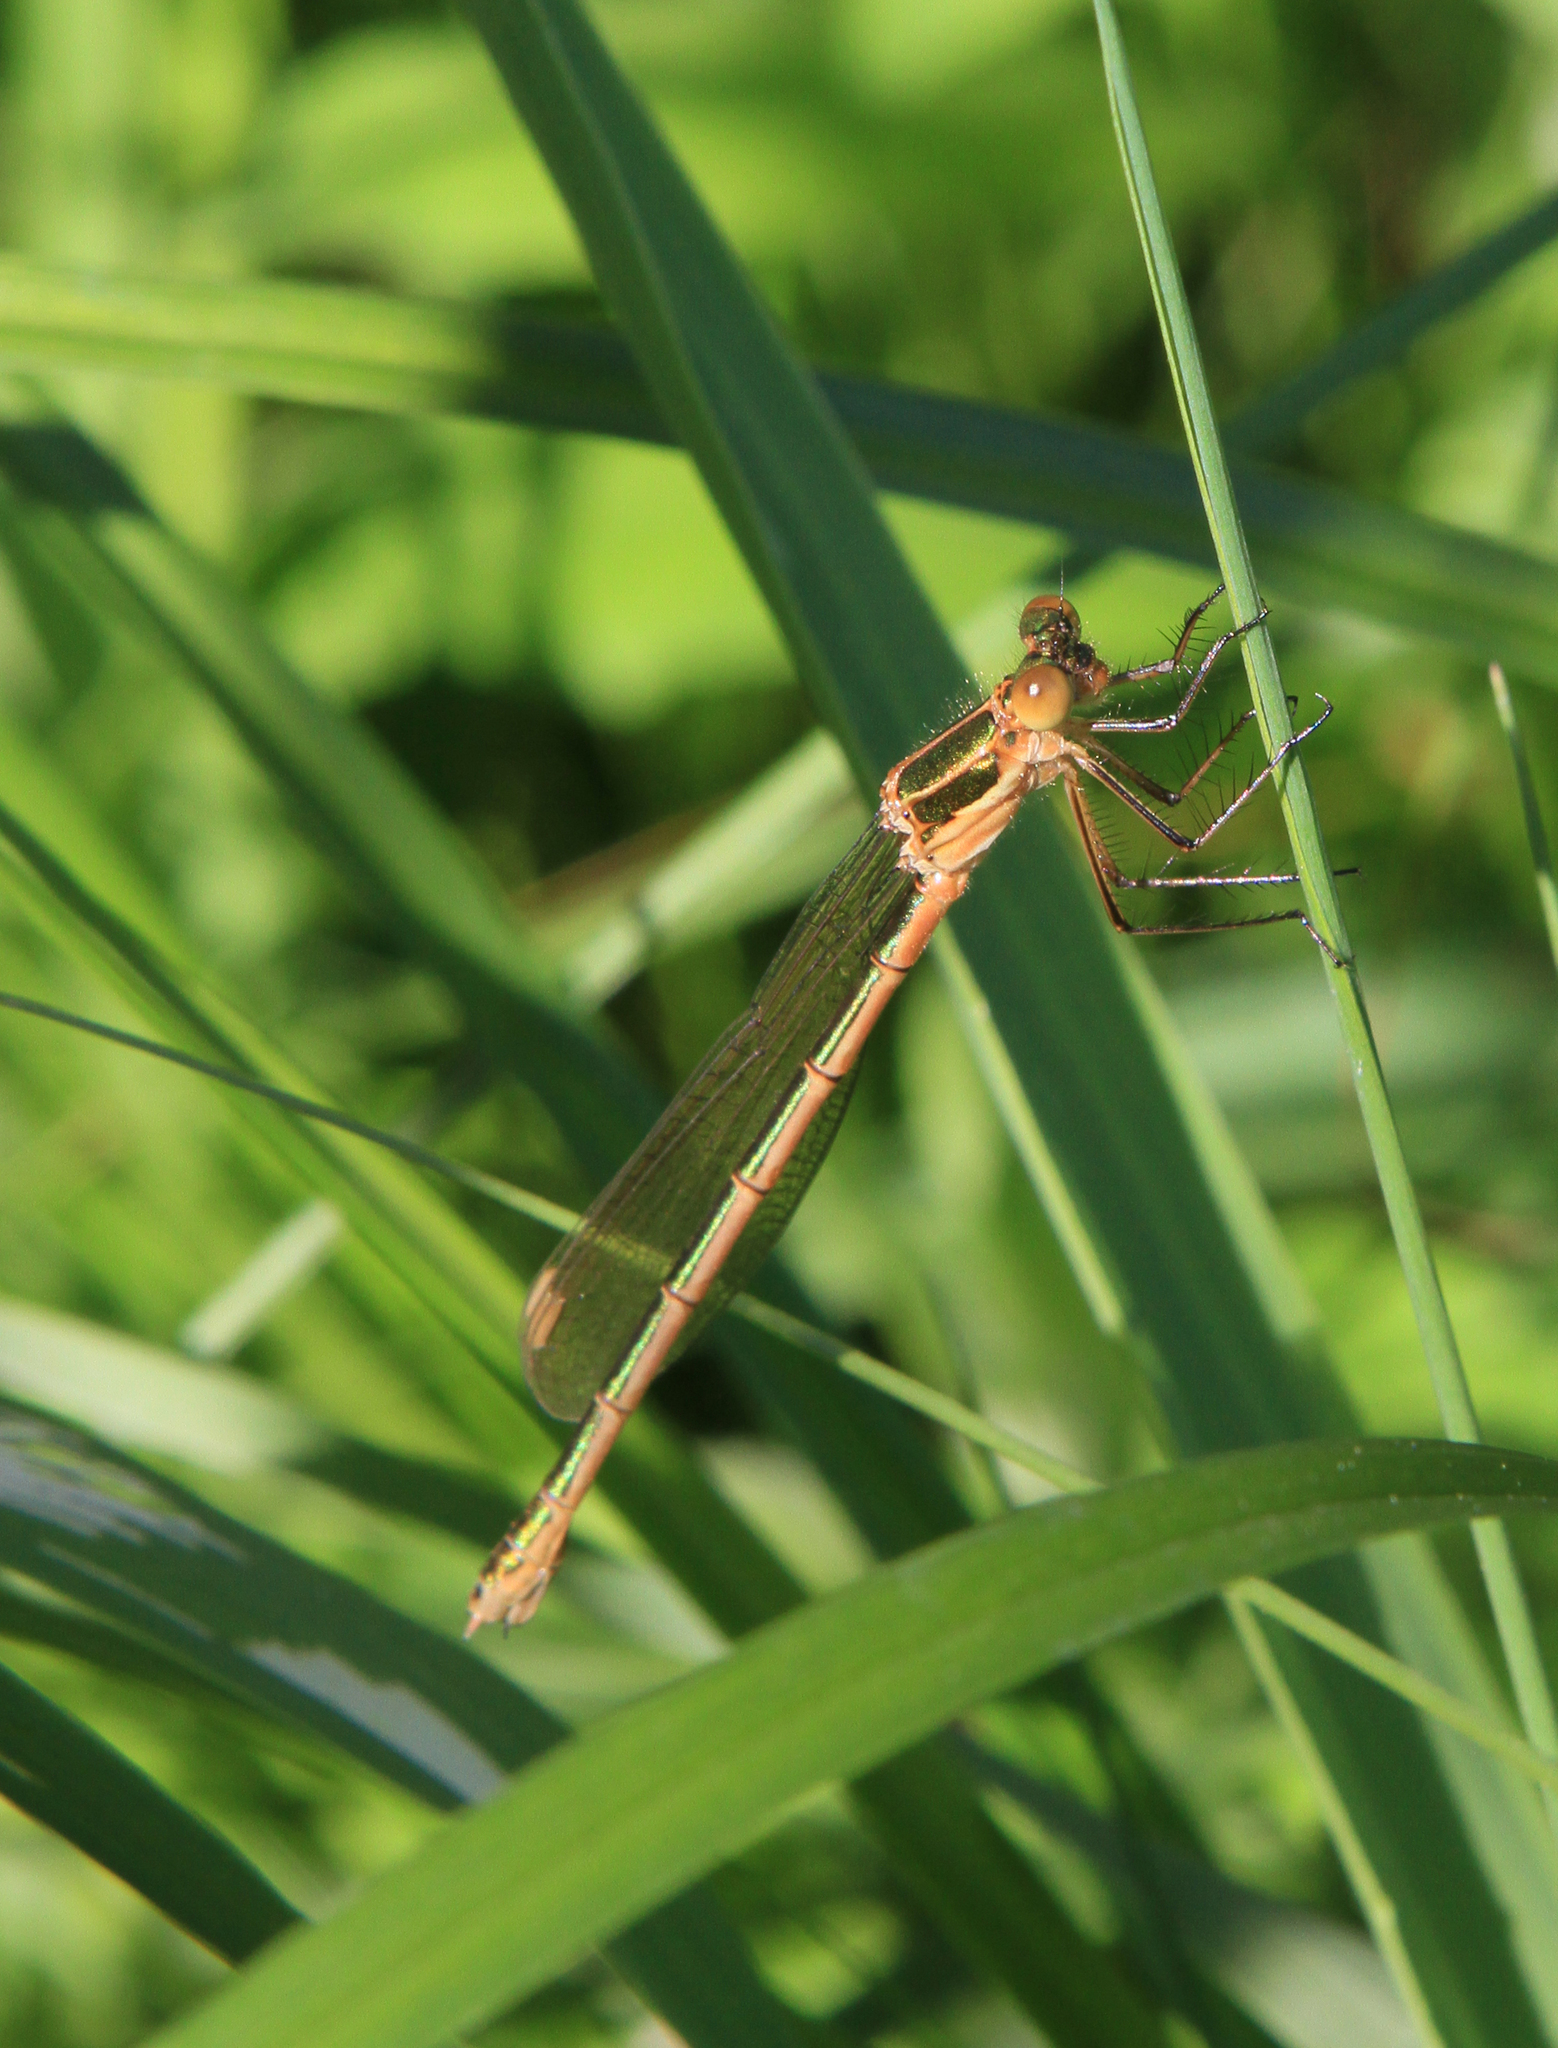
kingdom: Animalia
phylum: Arthropoda
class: Insecta
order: Odonata
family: Lestidae
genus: Lestes
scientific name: Lestes sponsa
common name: Common spreadwing
